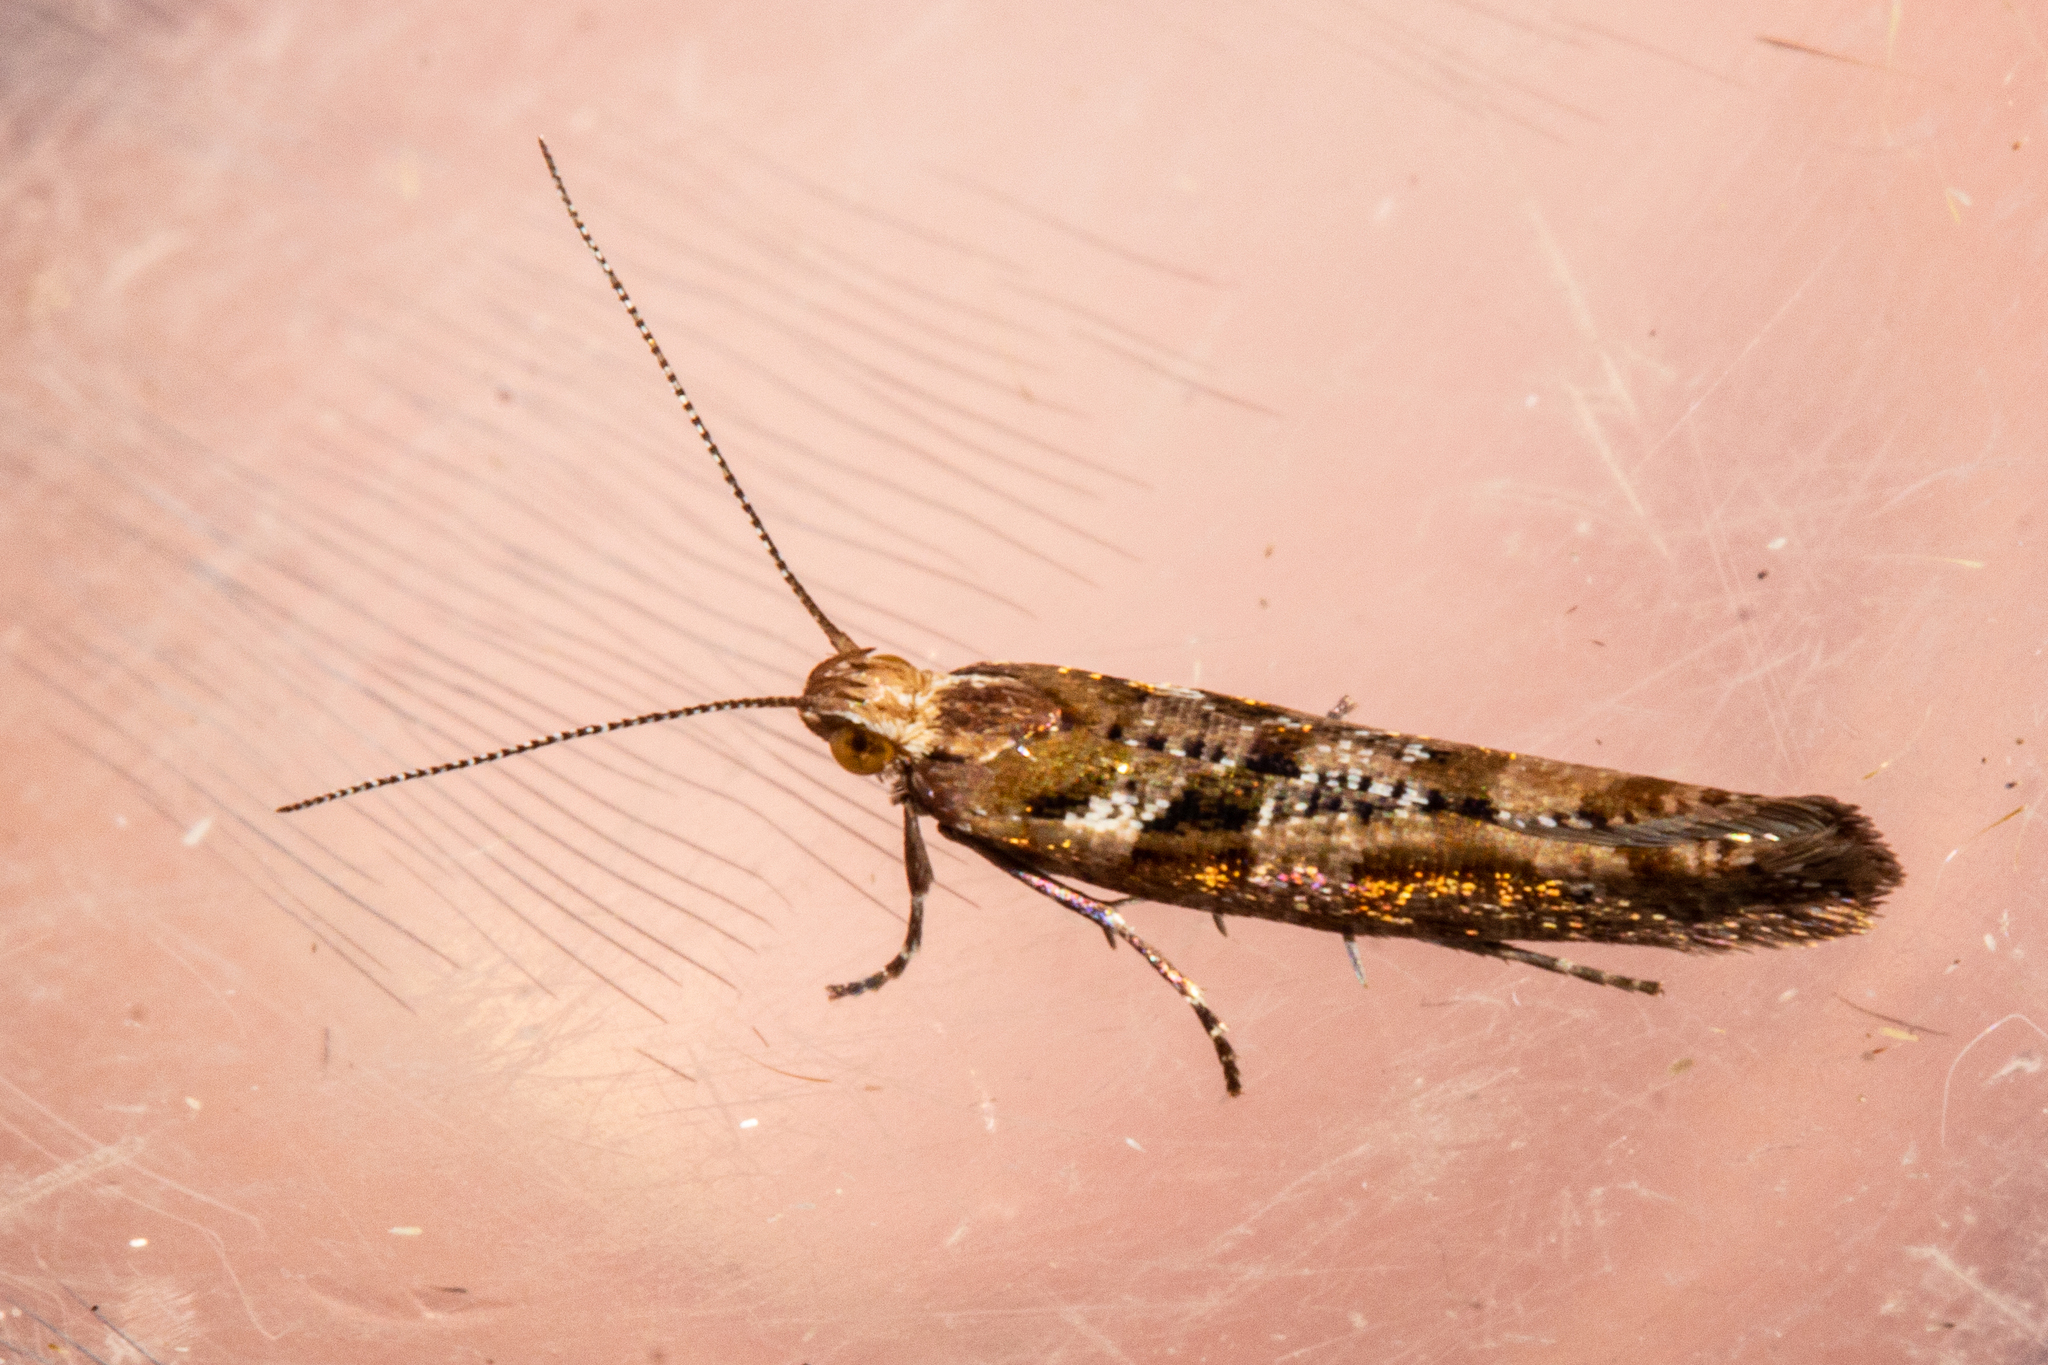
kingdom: Animalia
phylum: Arthropoda
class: Insecta
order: Lepidoptera
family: Glyphipterigidae
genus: Chrysorthenches
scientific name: Chrysorthenches porphyritis
